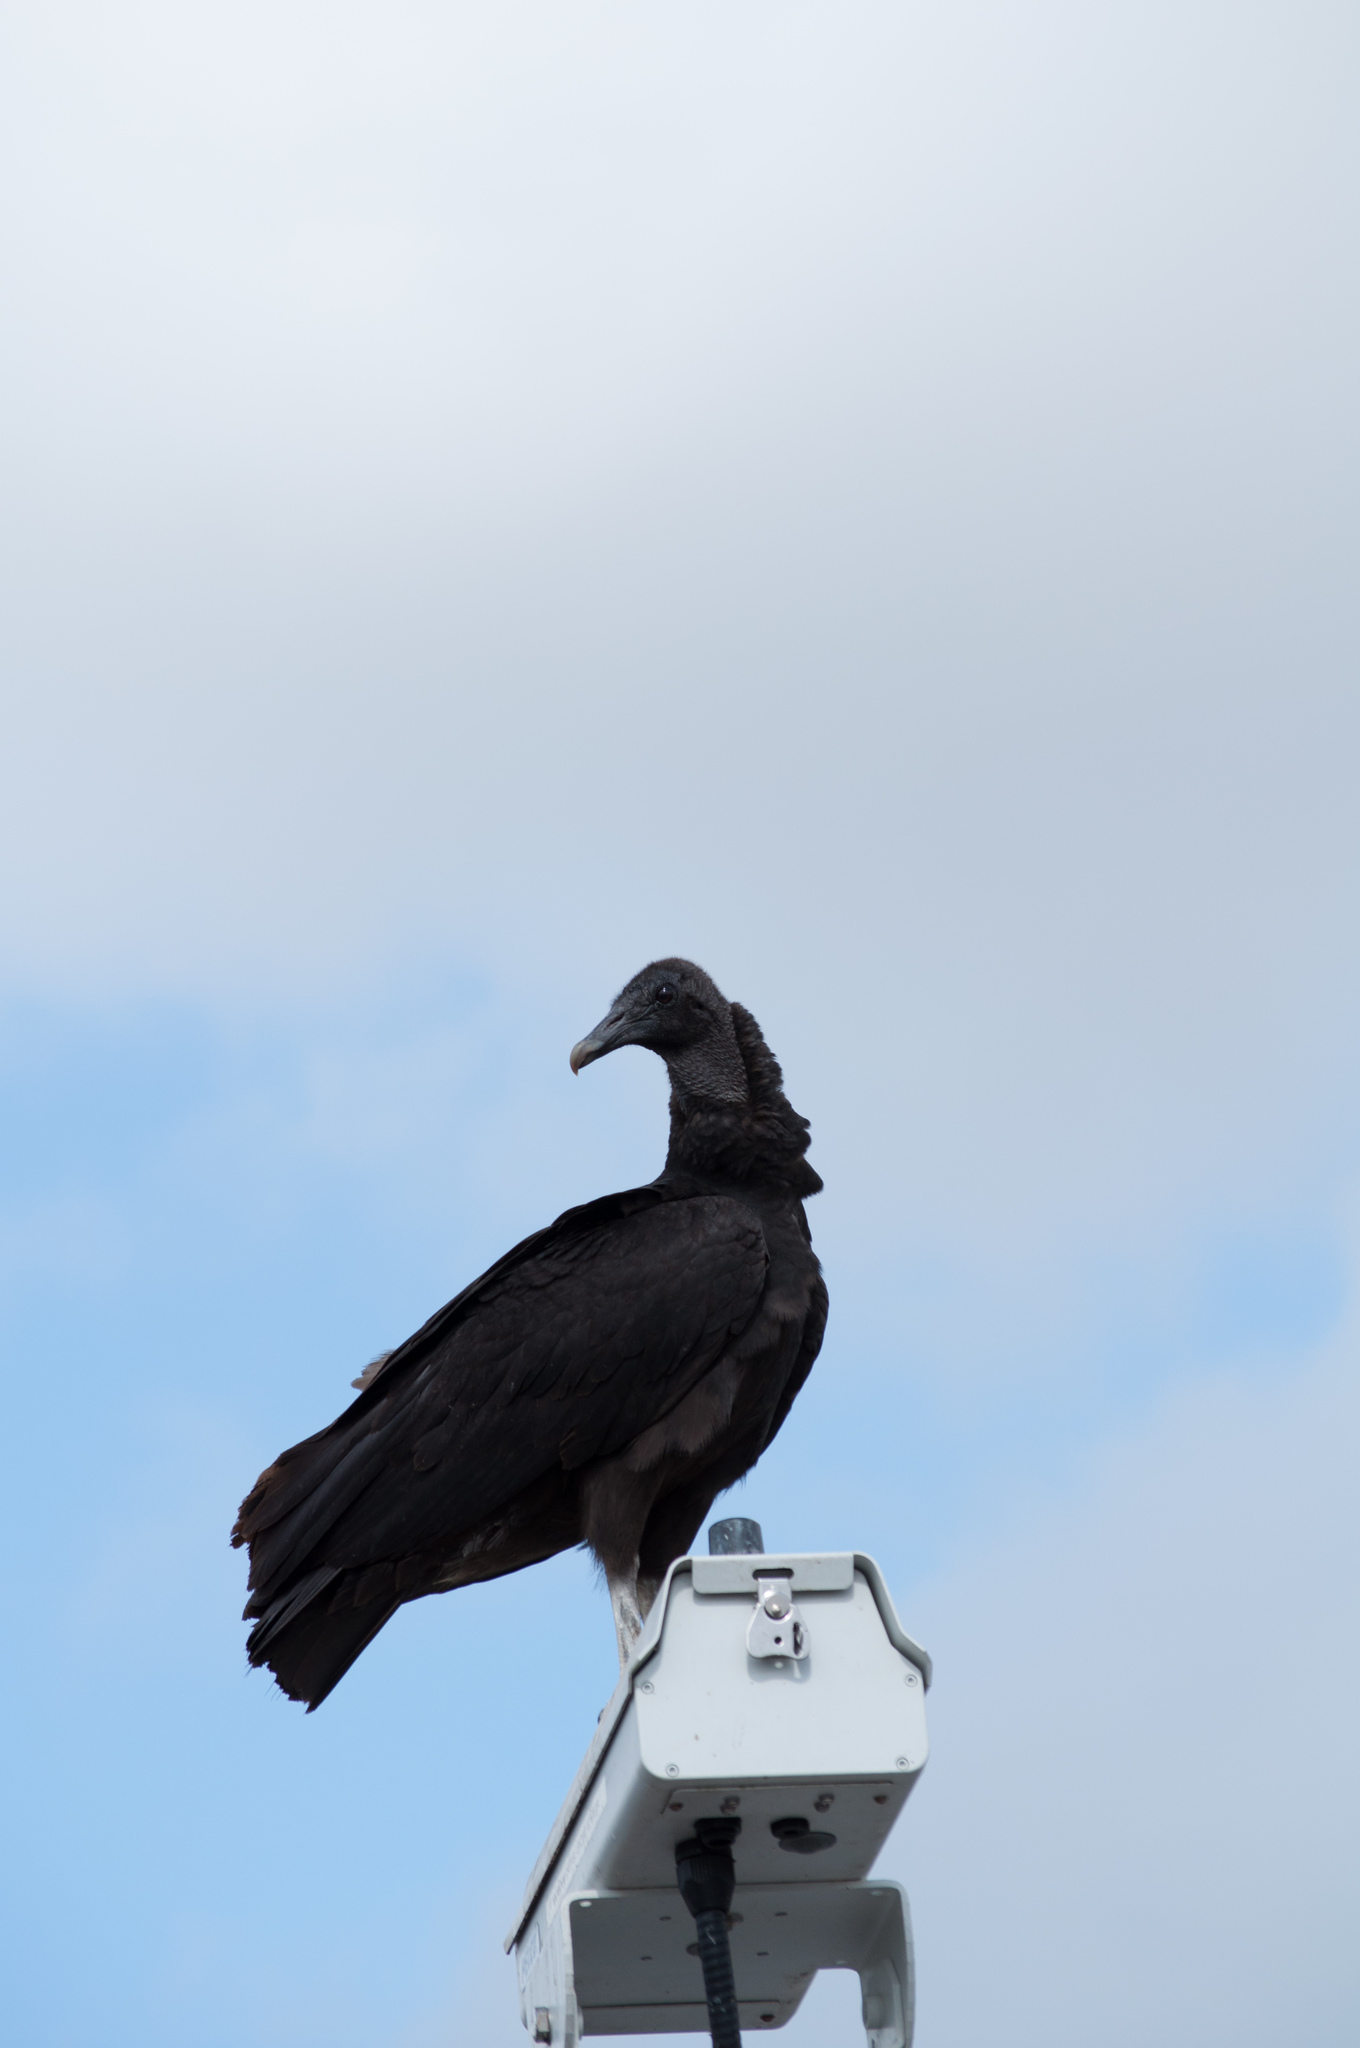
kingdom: Animalia
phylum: Chordata
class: Aves
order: Accipitriformes
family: Cathartidae
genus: Coragyps
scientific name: Coragyps atratus
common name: Black vulture
